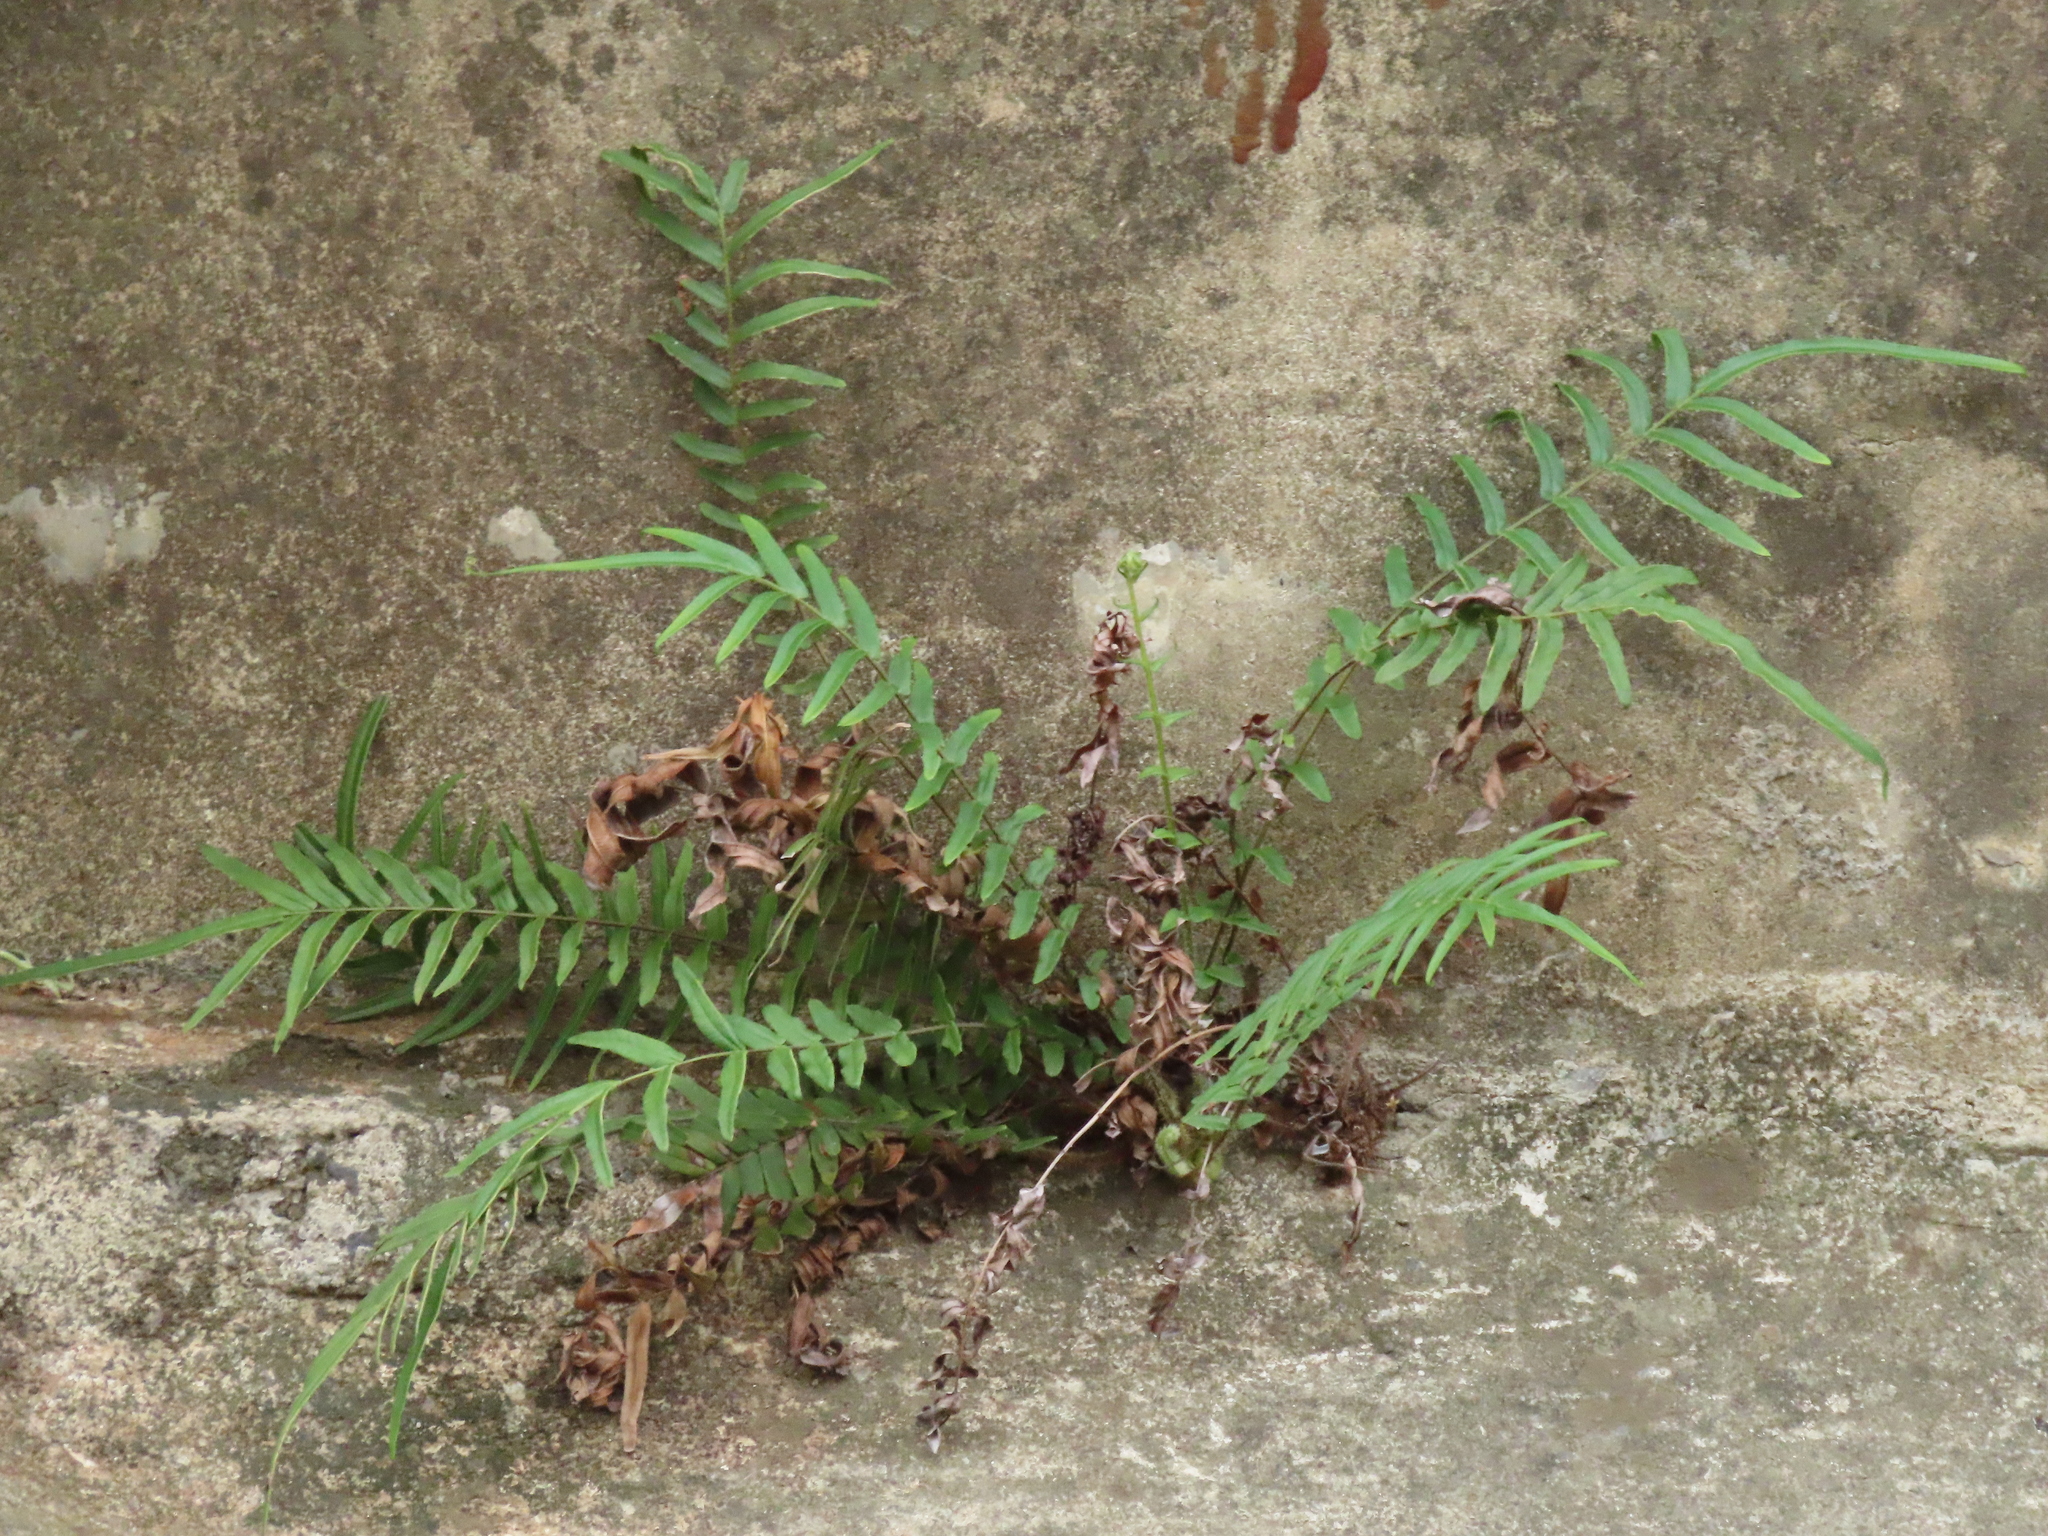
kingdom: Plantae
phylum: Tracheophyta
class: Polypodiopsida
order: Polypodiales
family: Pteridaceae
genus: Pteris
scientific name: Pteris vittata
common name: Ladder brake
